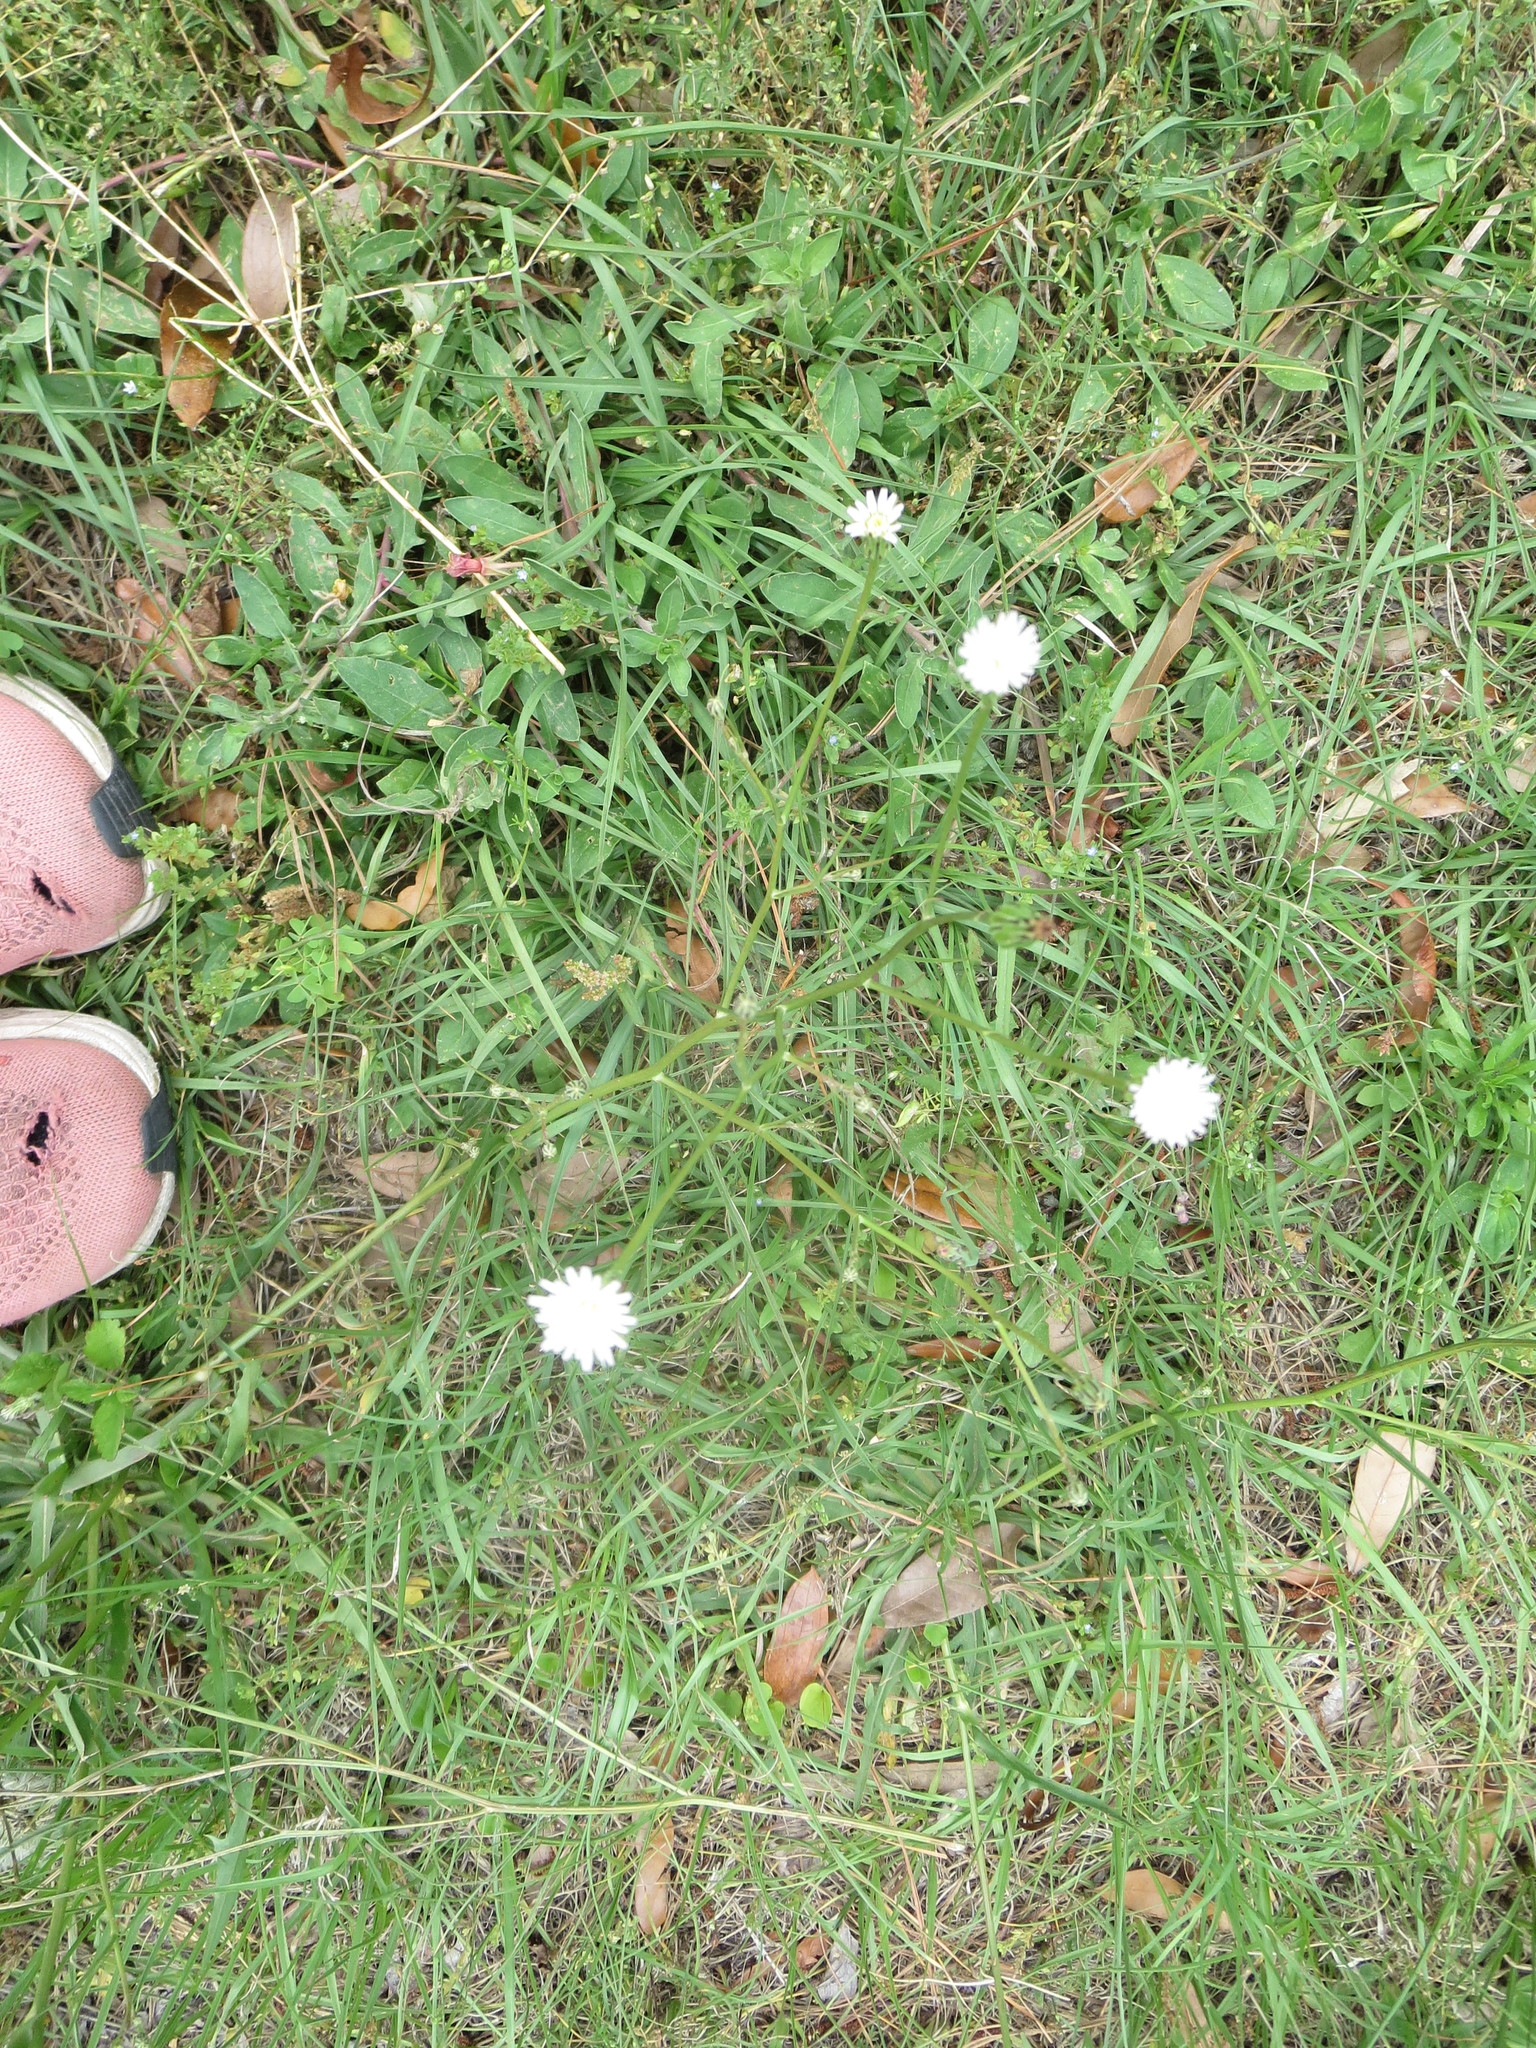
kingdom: Plantae
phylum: Tracheophyta
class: Magnoliopsida
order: Asterales
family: Asteraceae
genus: Hypochaeris
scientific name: Hypochaeris albiflora
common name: White flatweed
